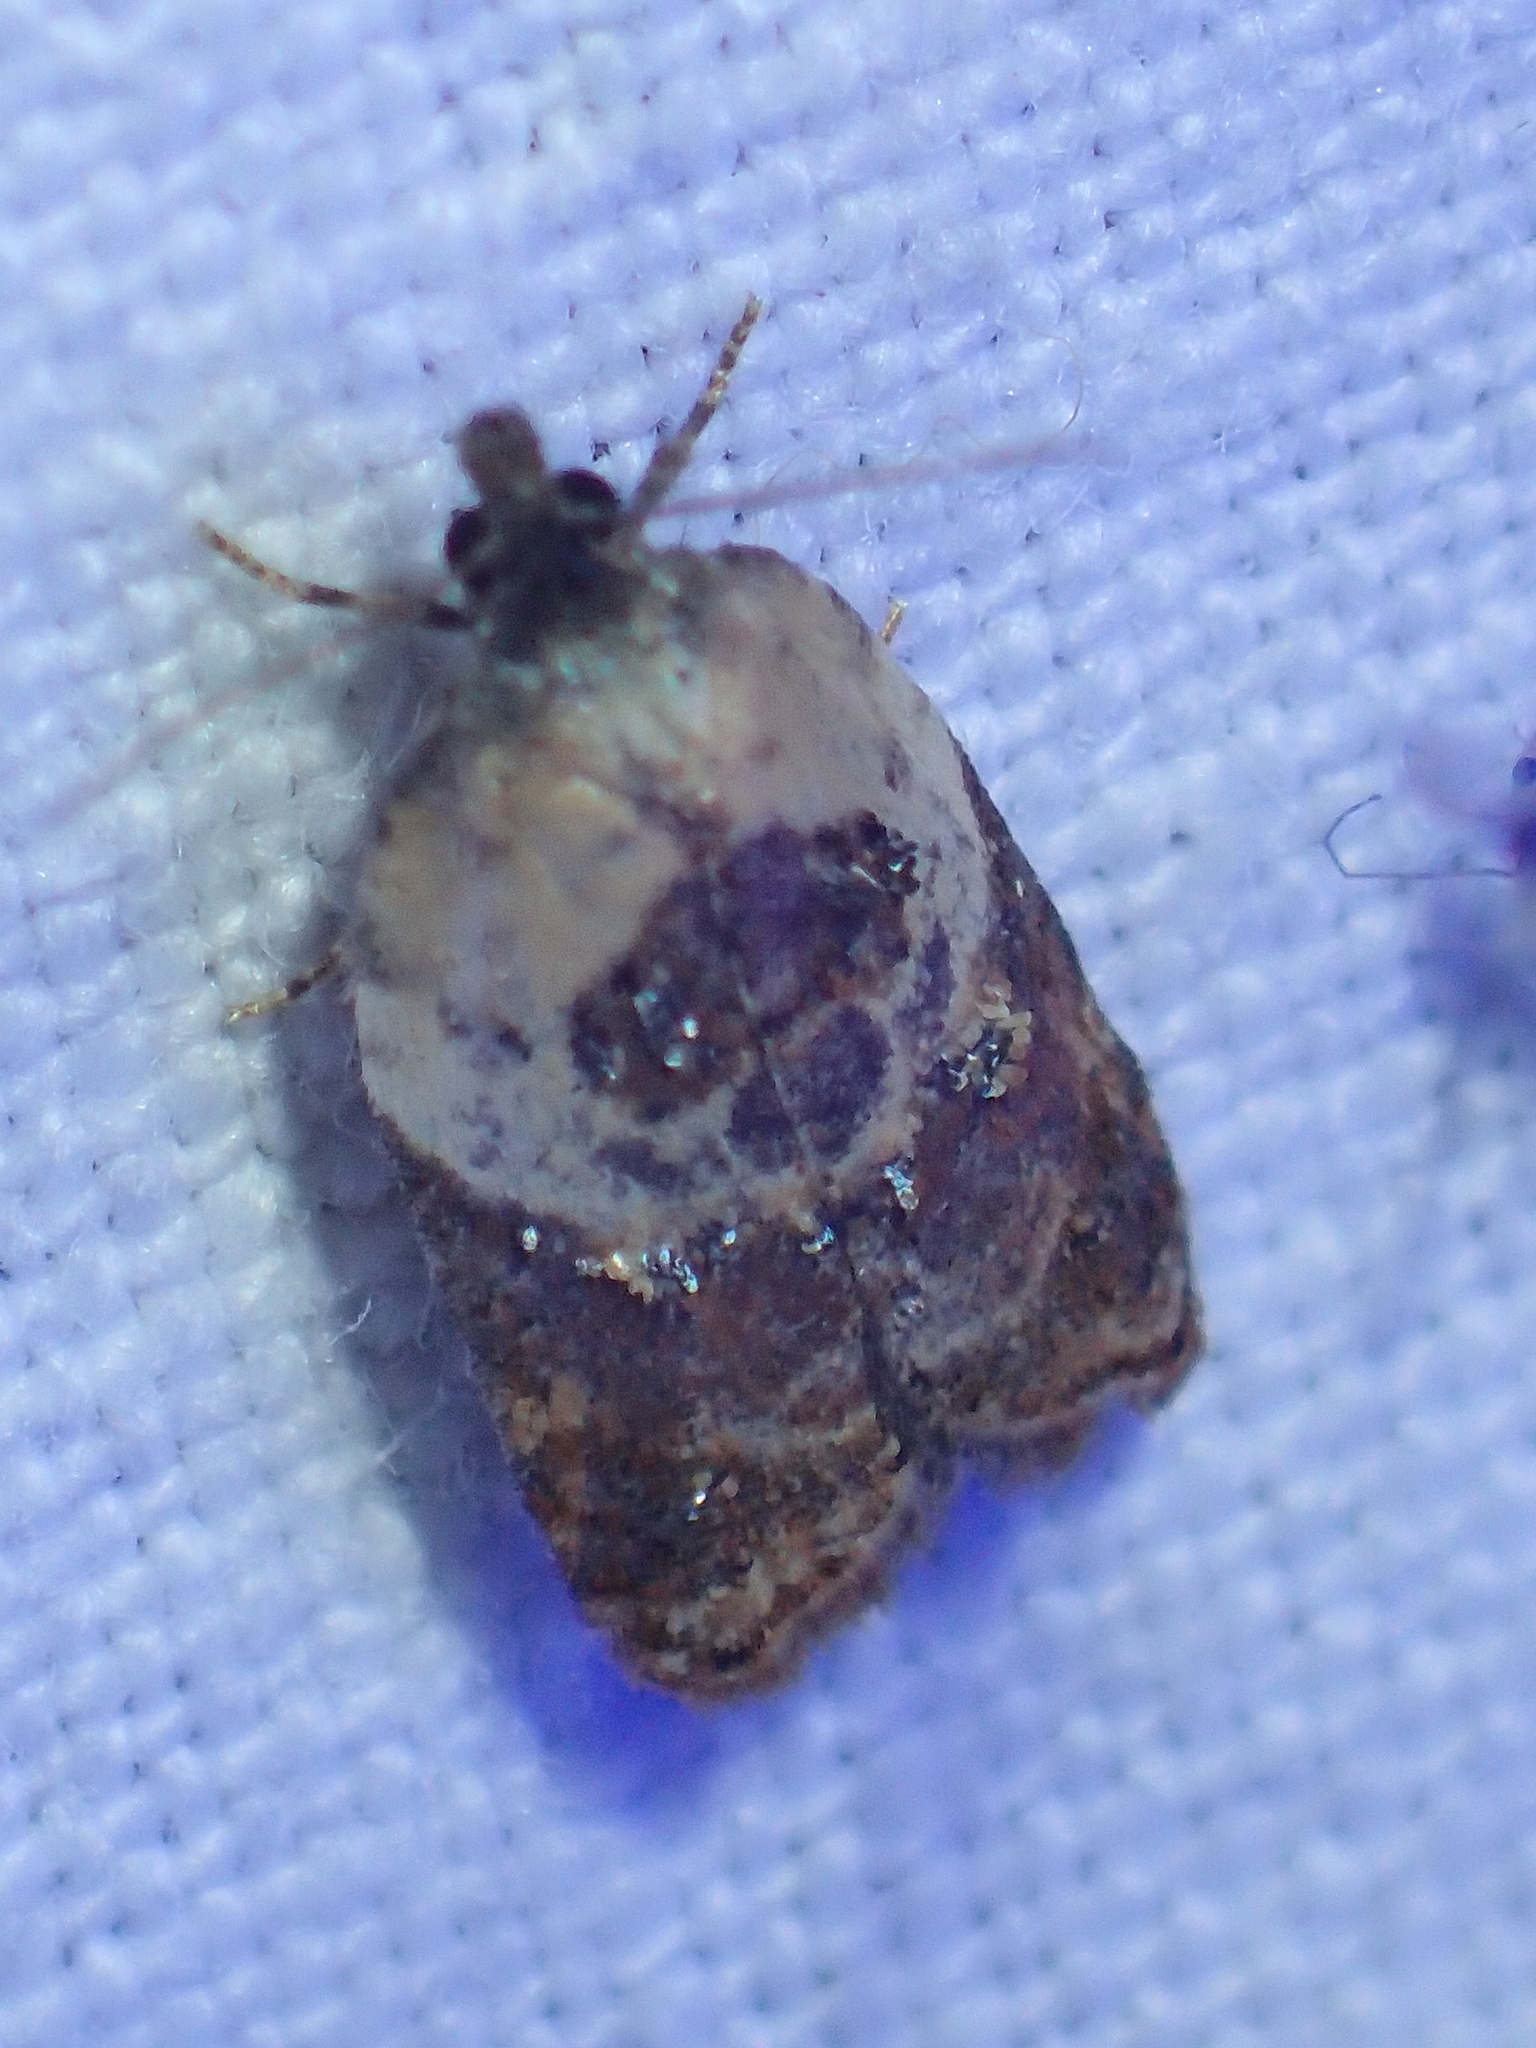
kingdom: Animalia
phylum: Arthropoda
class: Insecta
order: Lepidoptera
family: Tortricidae
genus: Acleris
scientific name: Acleris variegana
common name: Garden rose tortrix
